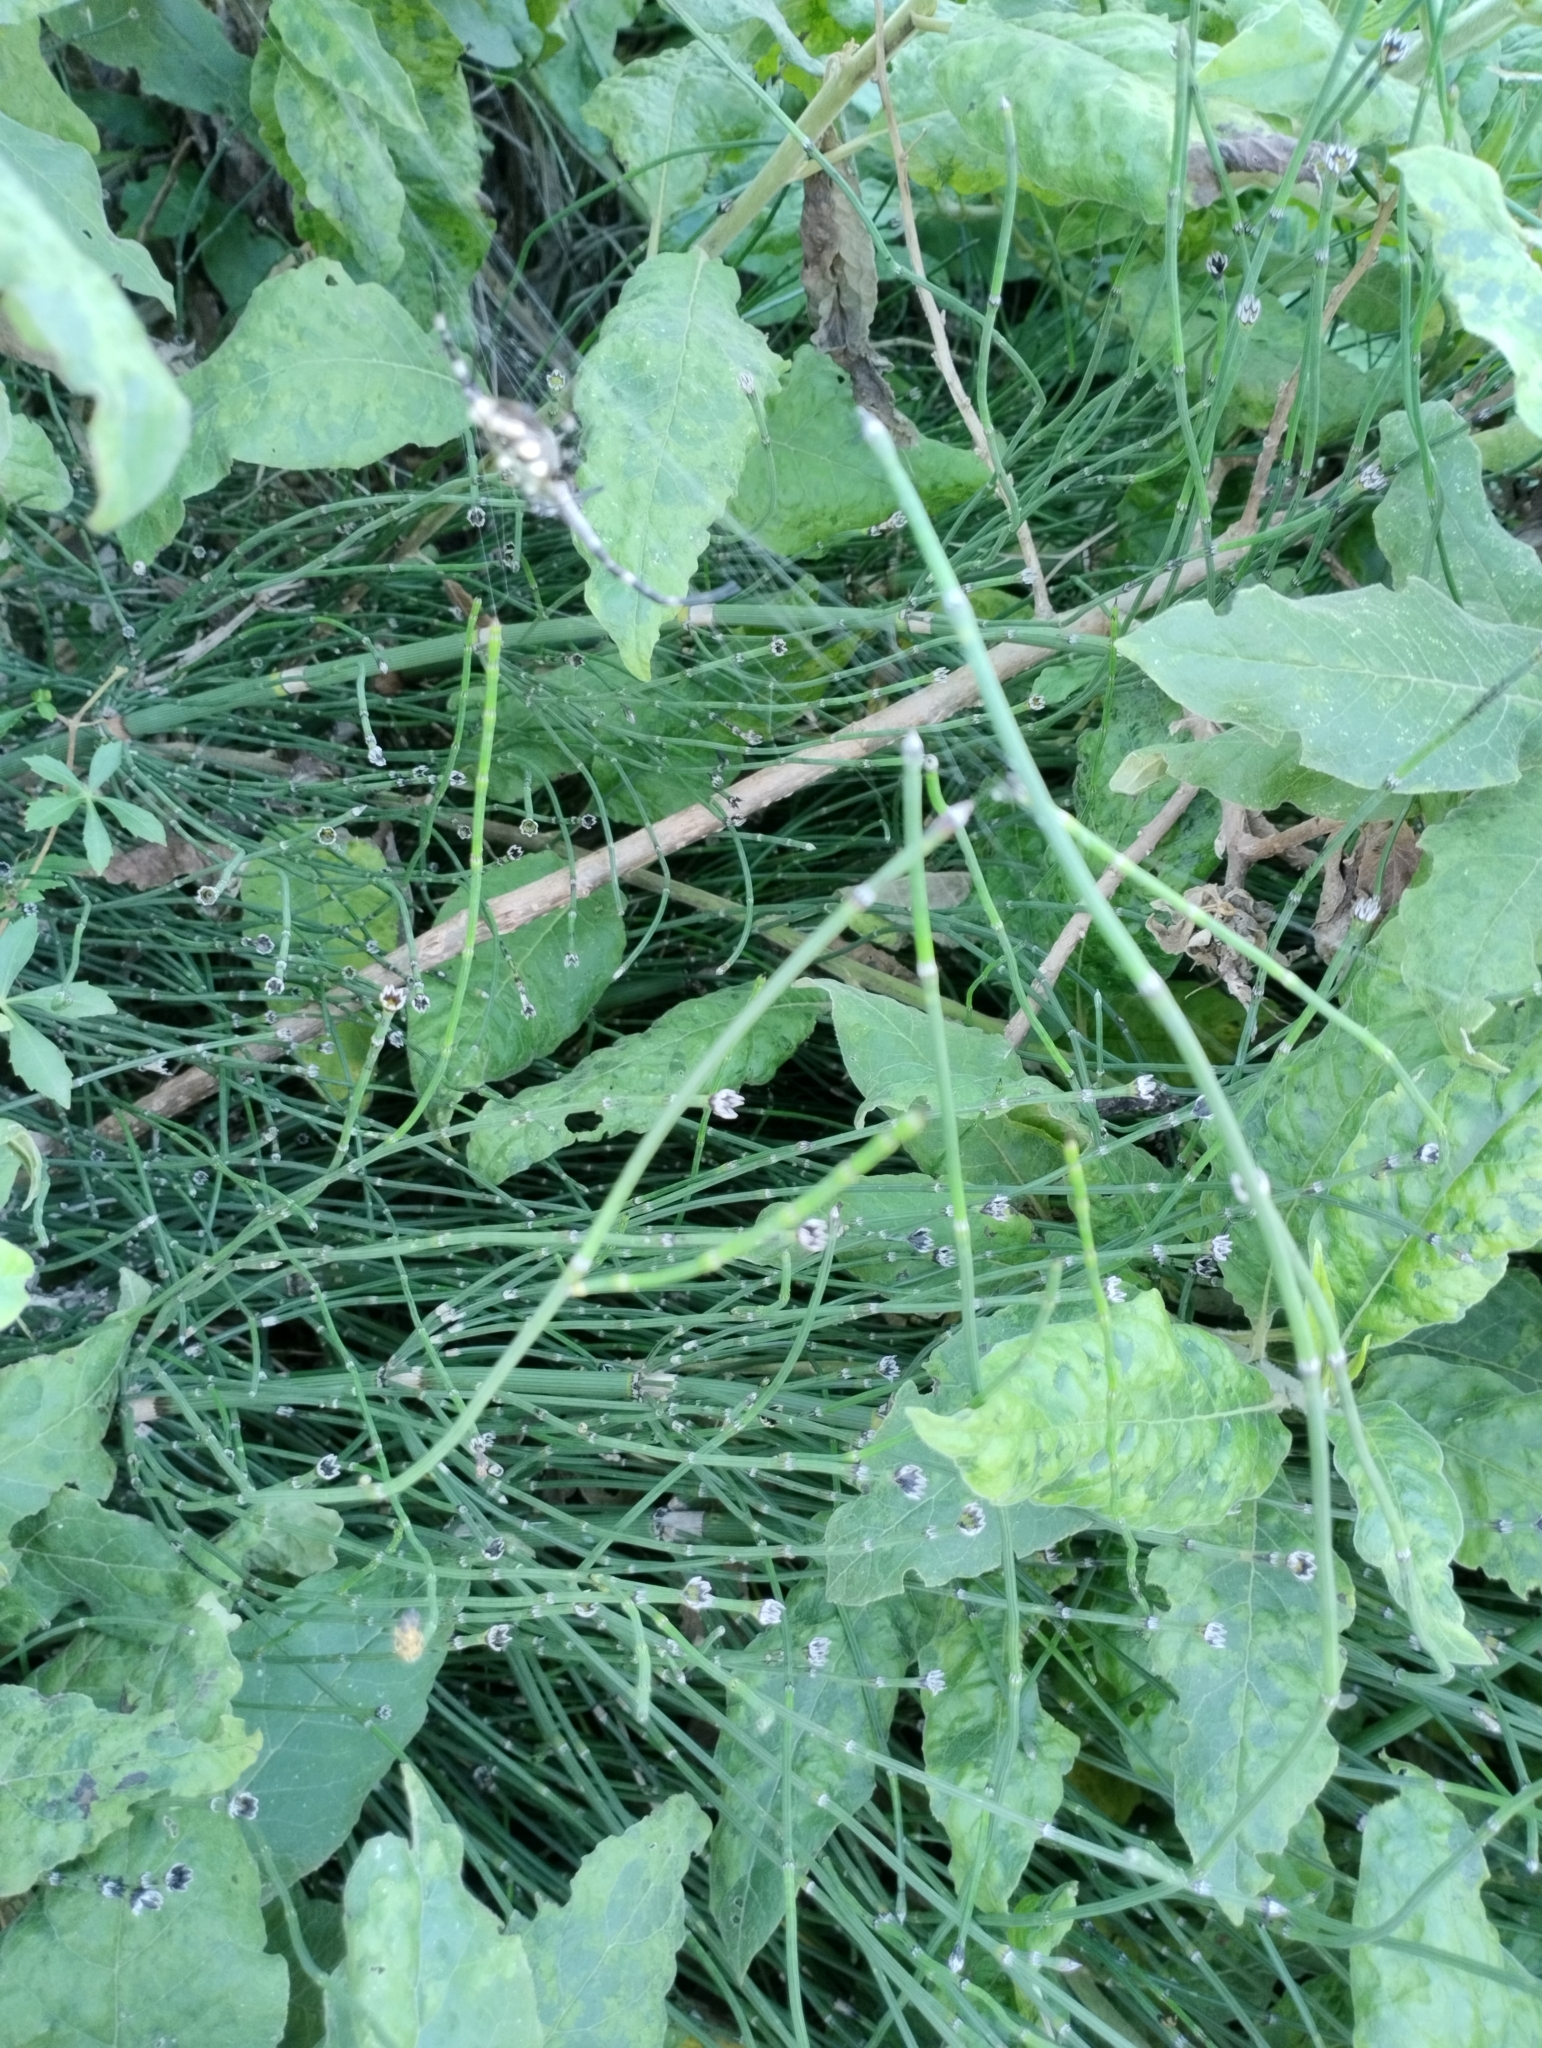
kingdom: Plantae
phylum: Tracheophyta
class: Polypodiopsida
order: Equisetales
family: Equisetaceae
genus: Equisetum
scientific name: Equisetum giganteum
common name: Giant horsetail
